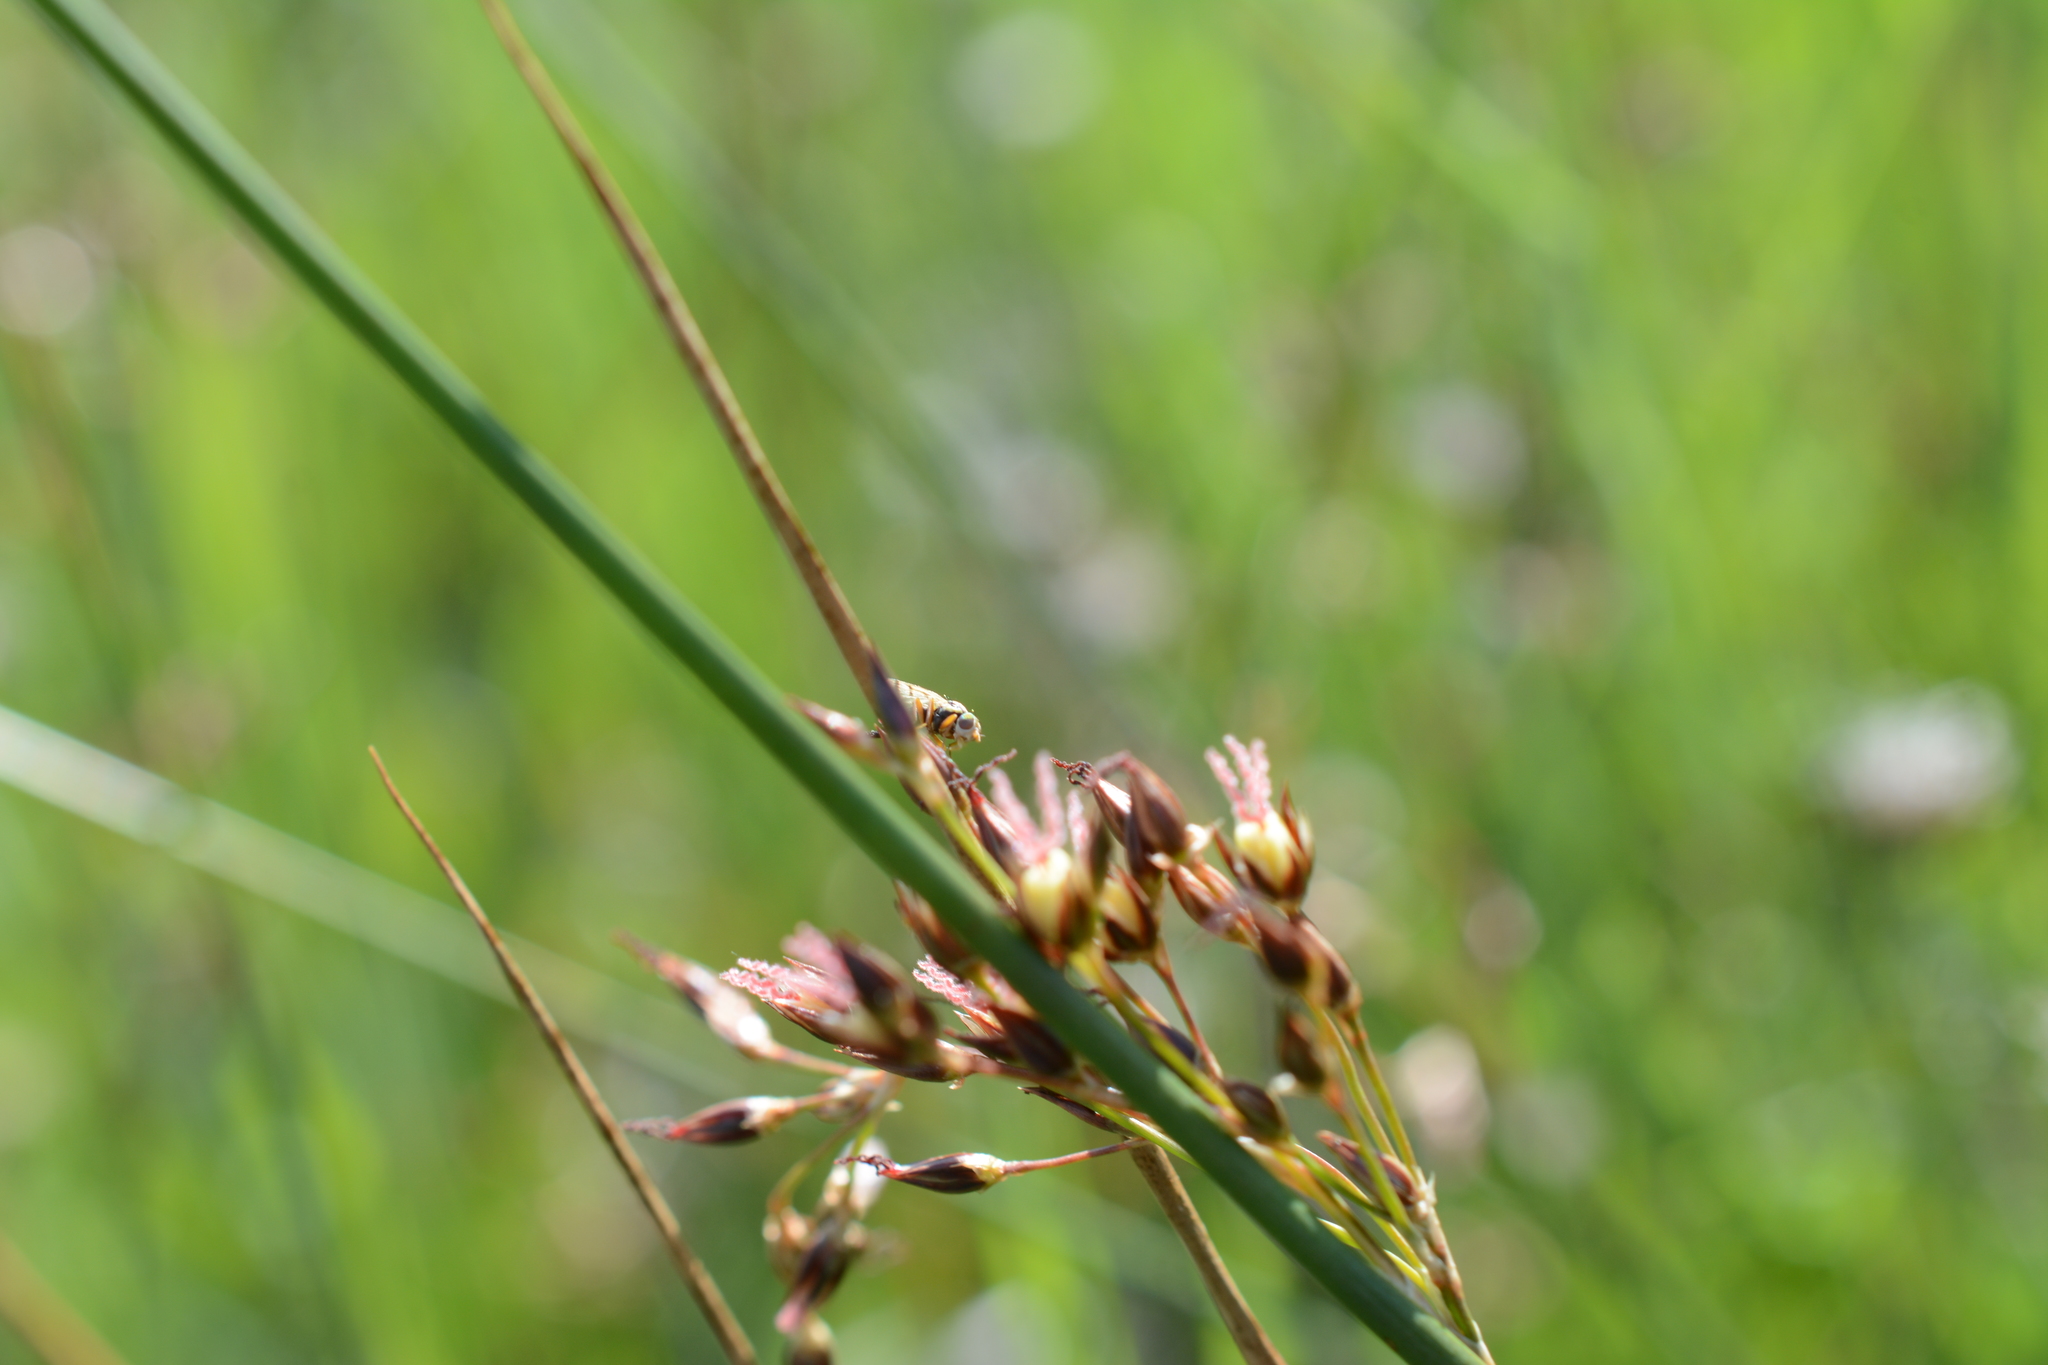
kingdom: Plantae
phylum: Tracheophyta
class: Liliopsida
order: Poales
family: Juncaceae
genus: Juncus
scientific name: Juncus balticus
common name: Baltic rush
